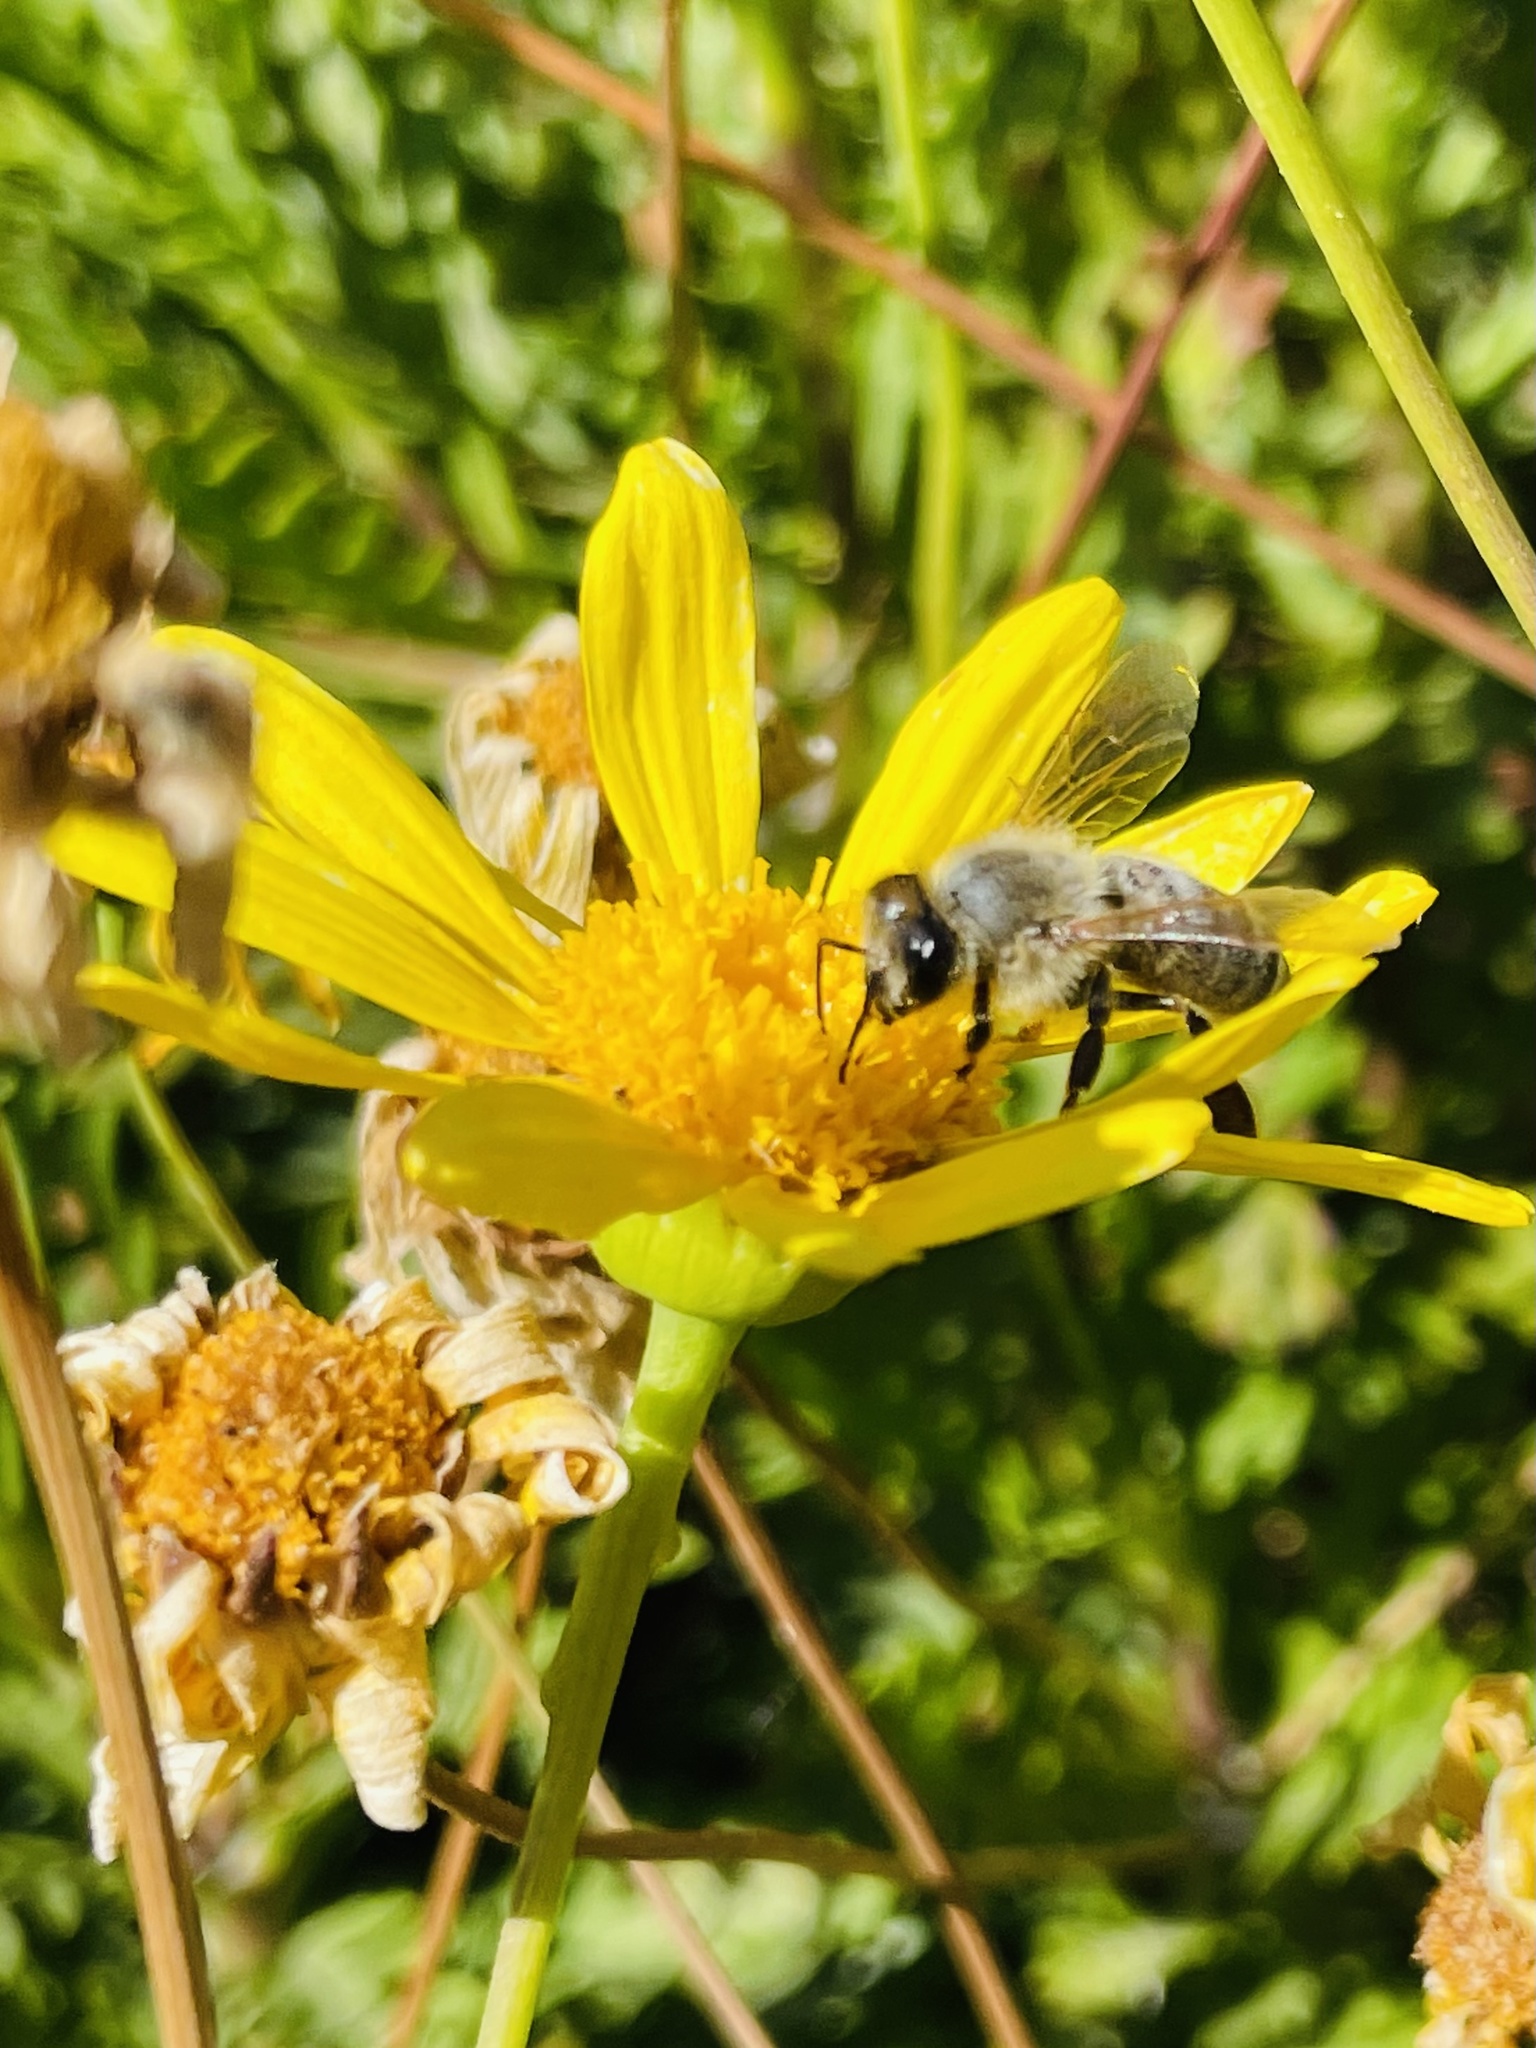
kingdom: Animalia
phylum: Arthropoda
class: Insecta
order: Hymenoptera
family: Apidae
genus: Apis
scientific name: Apis mellifera
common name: Honey bee
